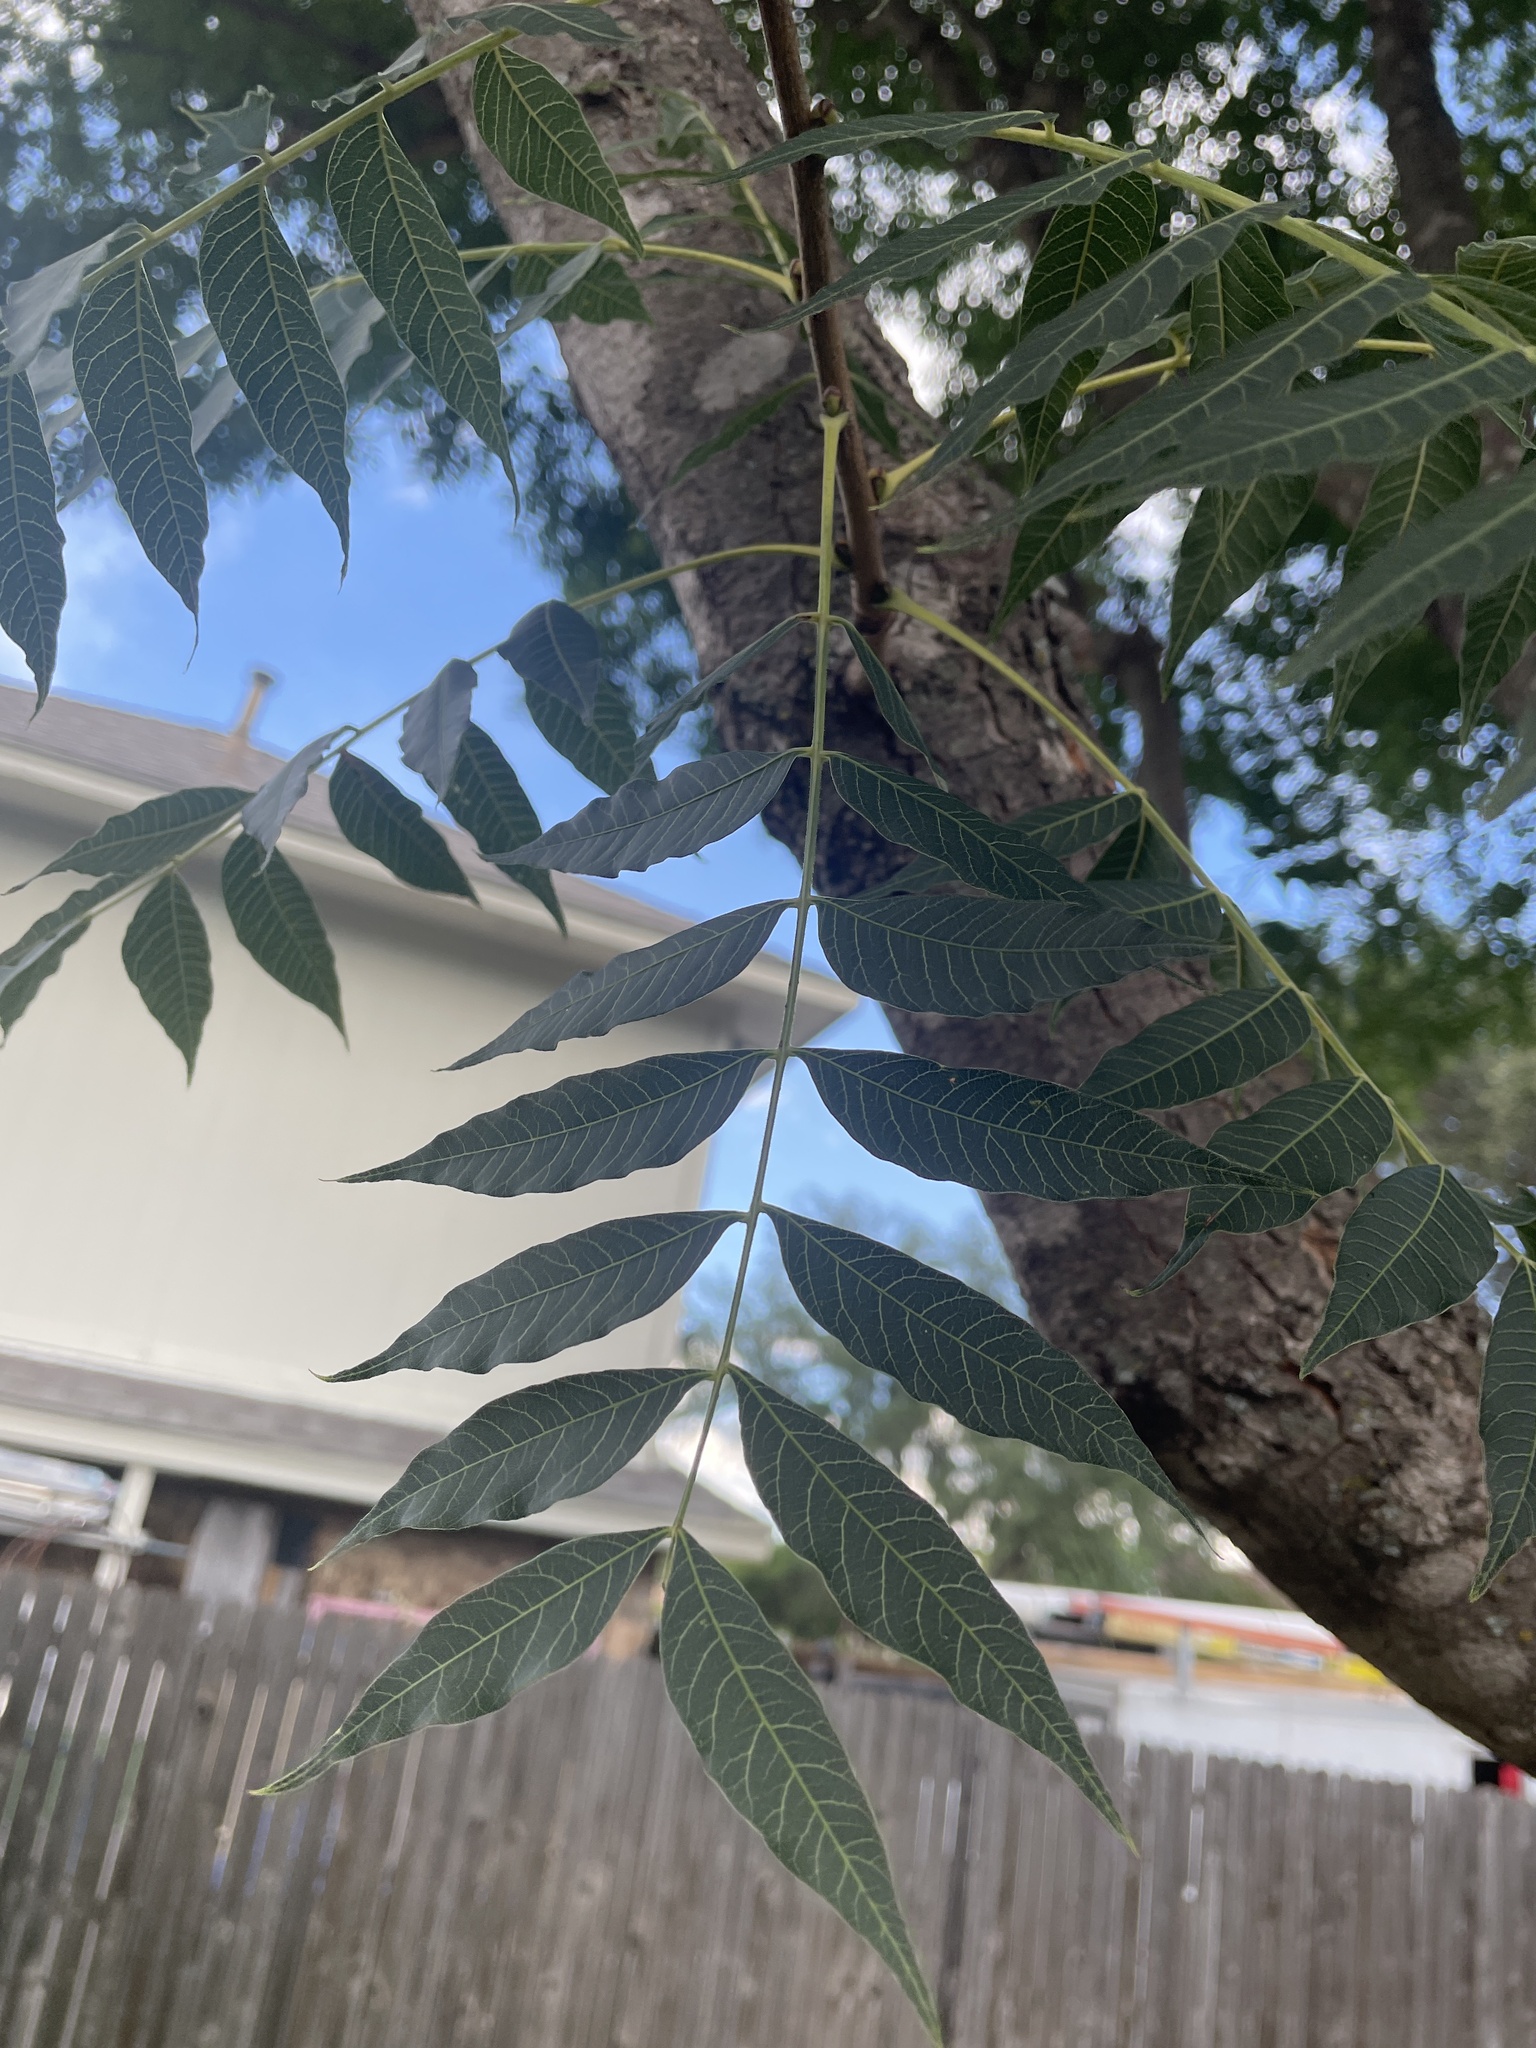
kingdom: Plantae
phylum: Tracheophyta
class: Magnoliopsida
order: Sapindales
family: Anacardiaceae
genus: Pistacia
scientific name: Pistacia chinensis
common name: Chinese pistache
